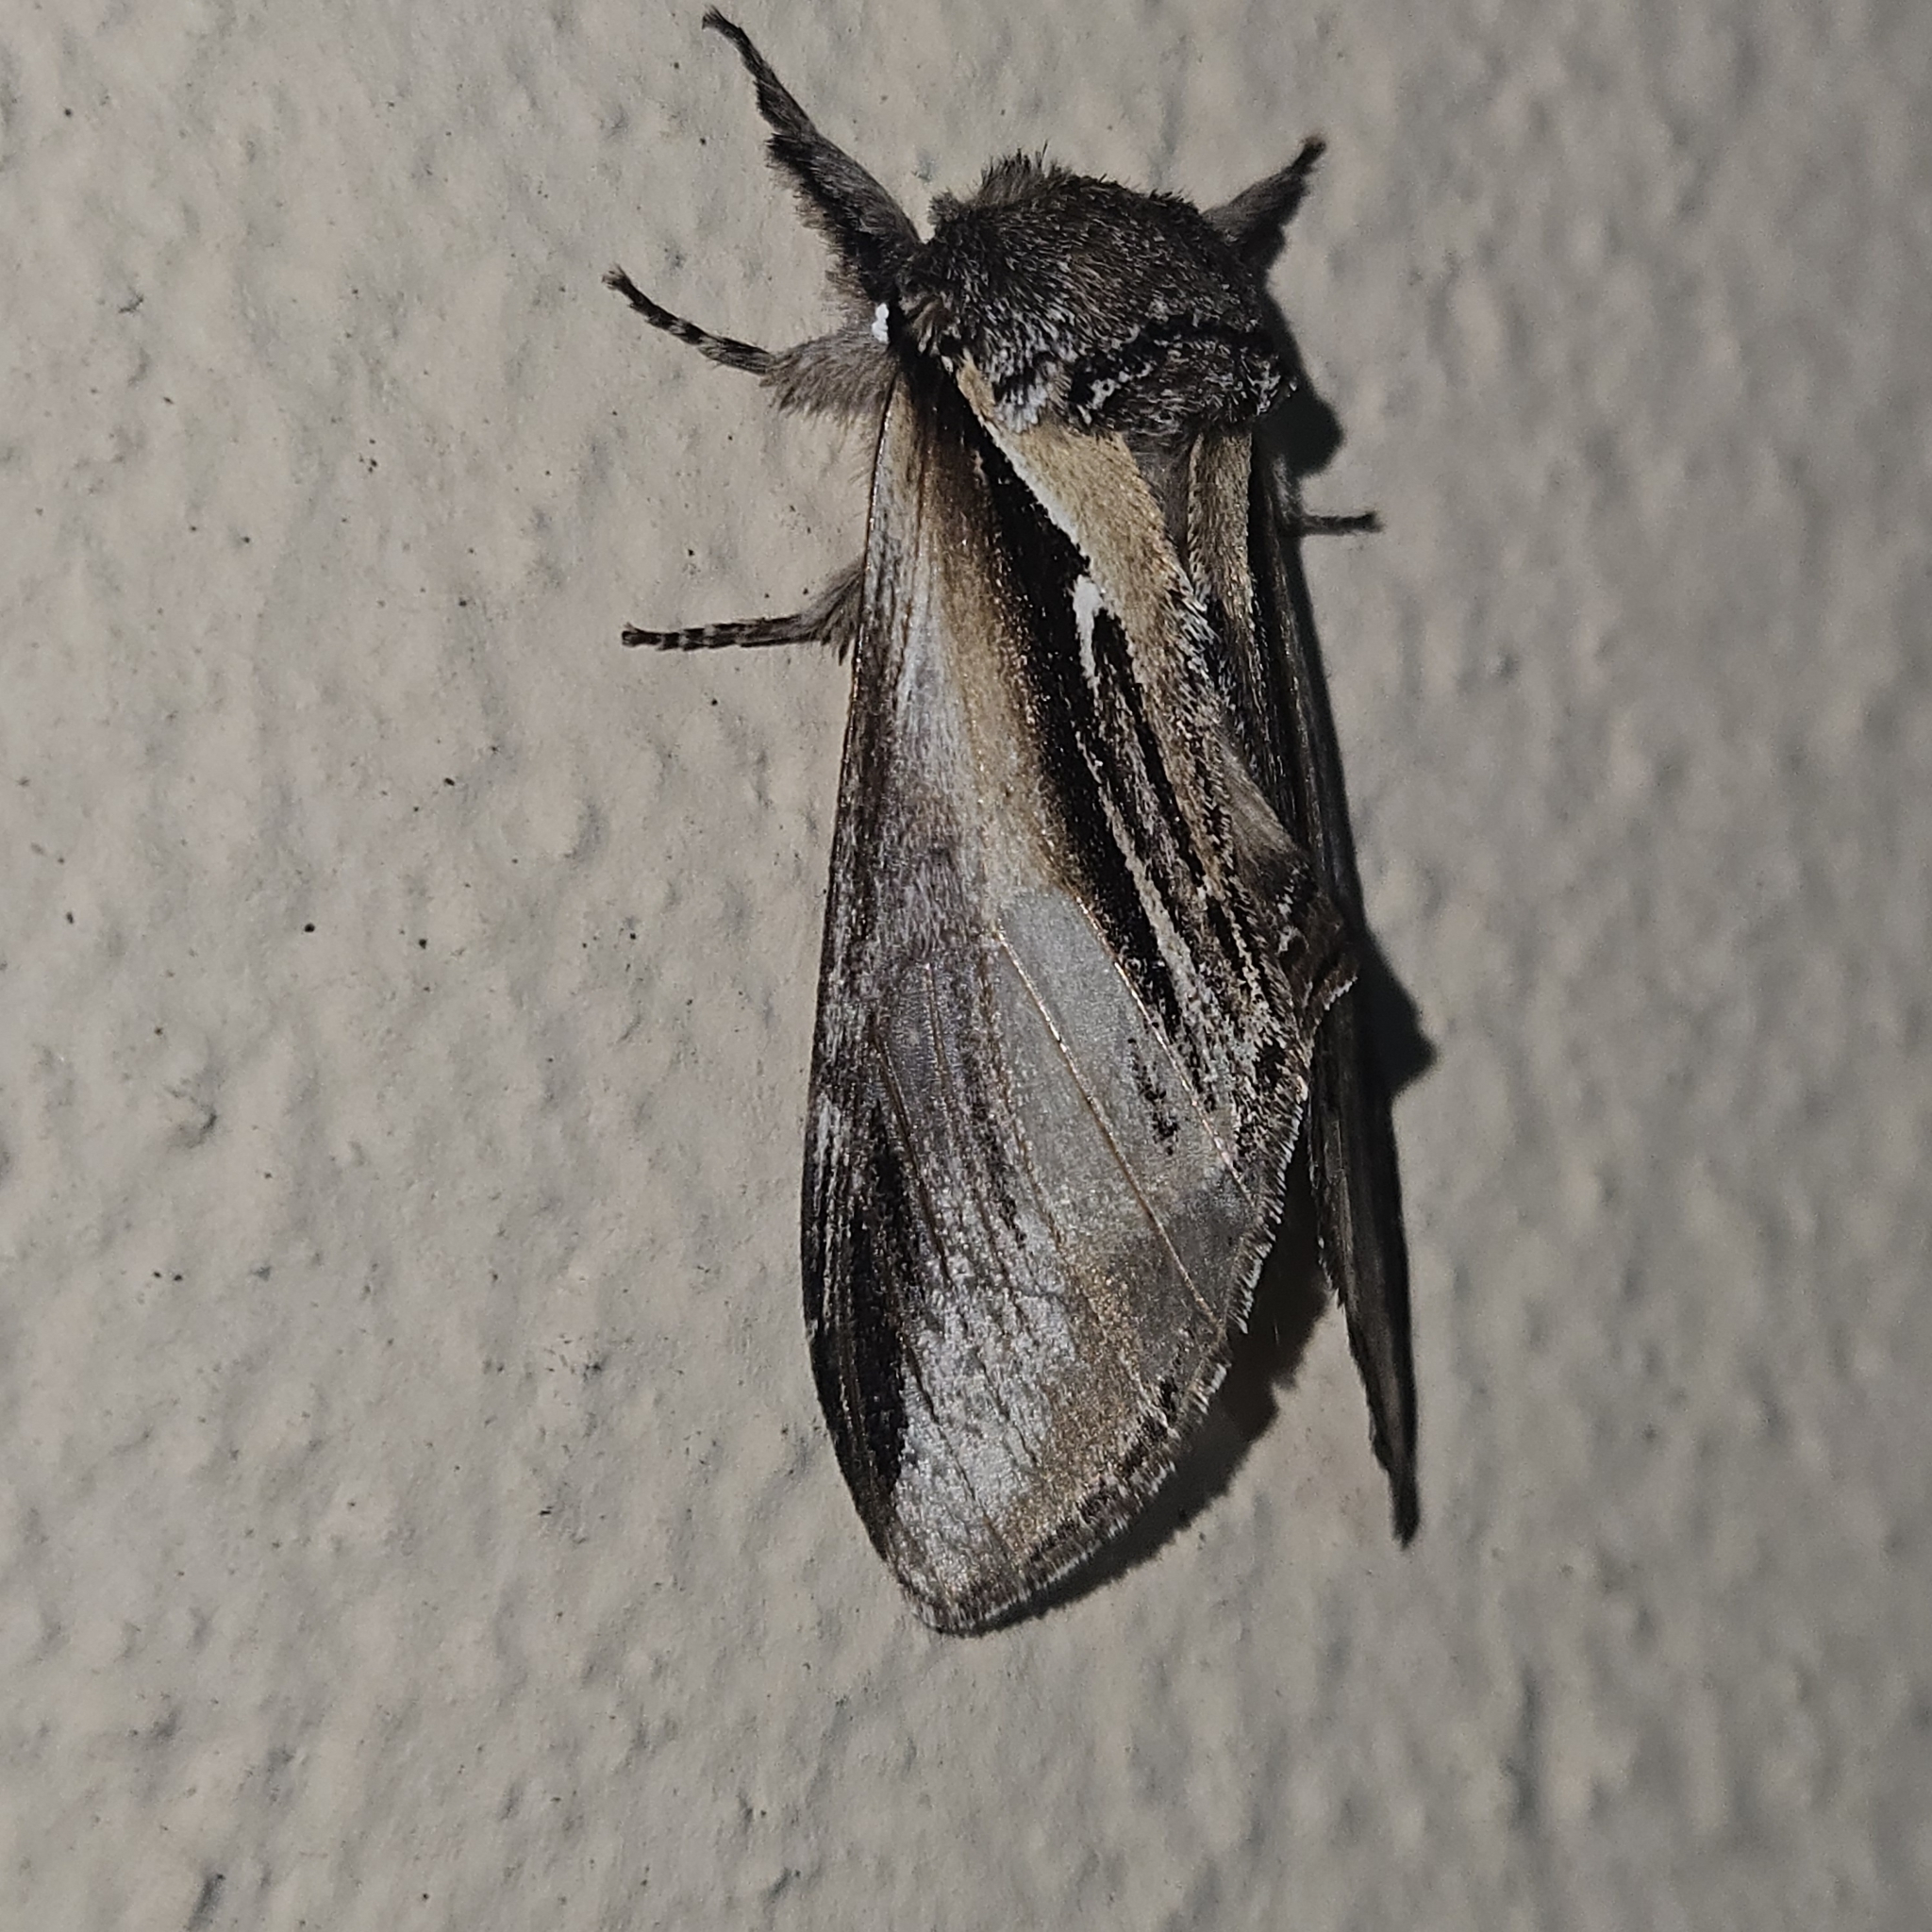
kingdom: Animalia
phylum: Arthropoda
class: Insecta
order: Lepidoptera
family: Notodontidae
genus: Pheosia
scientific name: Pheosia tremula
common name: Swallow prominent
